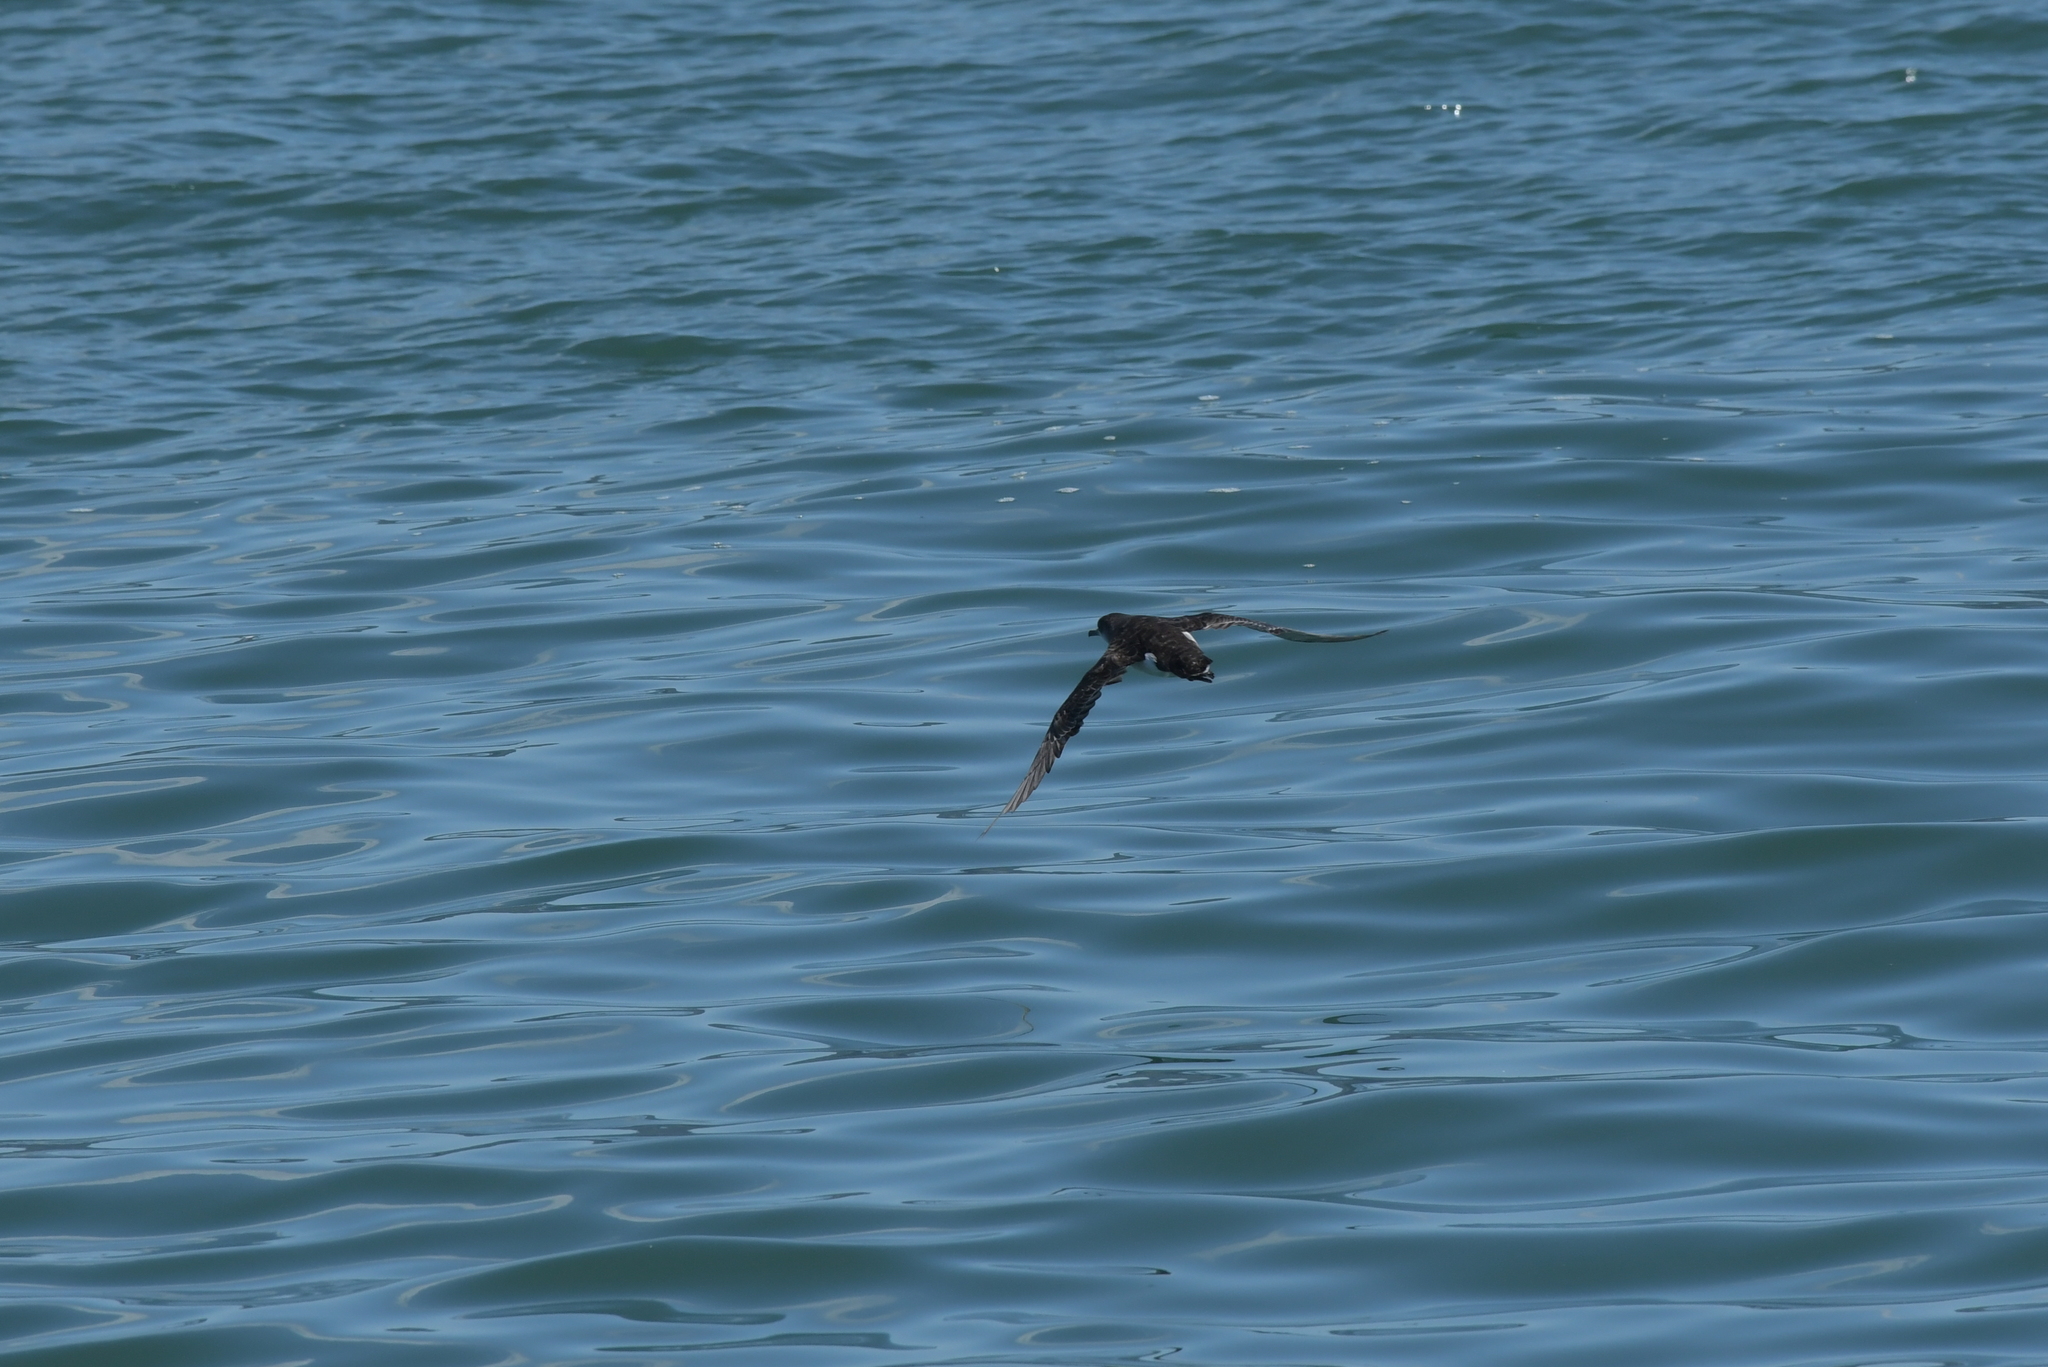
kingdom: Animalia
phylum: Chordata
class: Aves
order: Procellariiformes
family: Procellariidae
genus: Puffinus
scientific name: Puffinus gavia
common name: Fluttering shearwater
